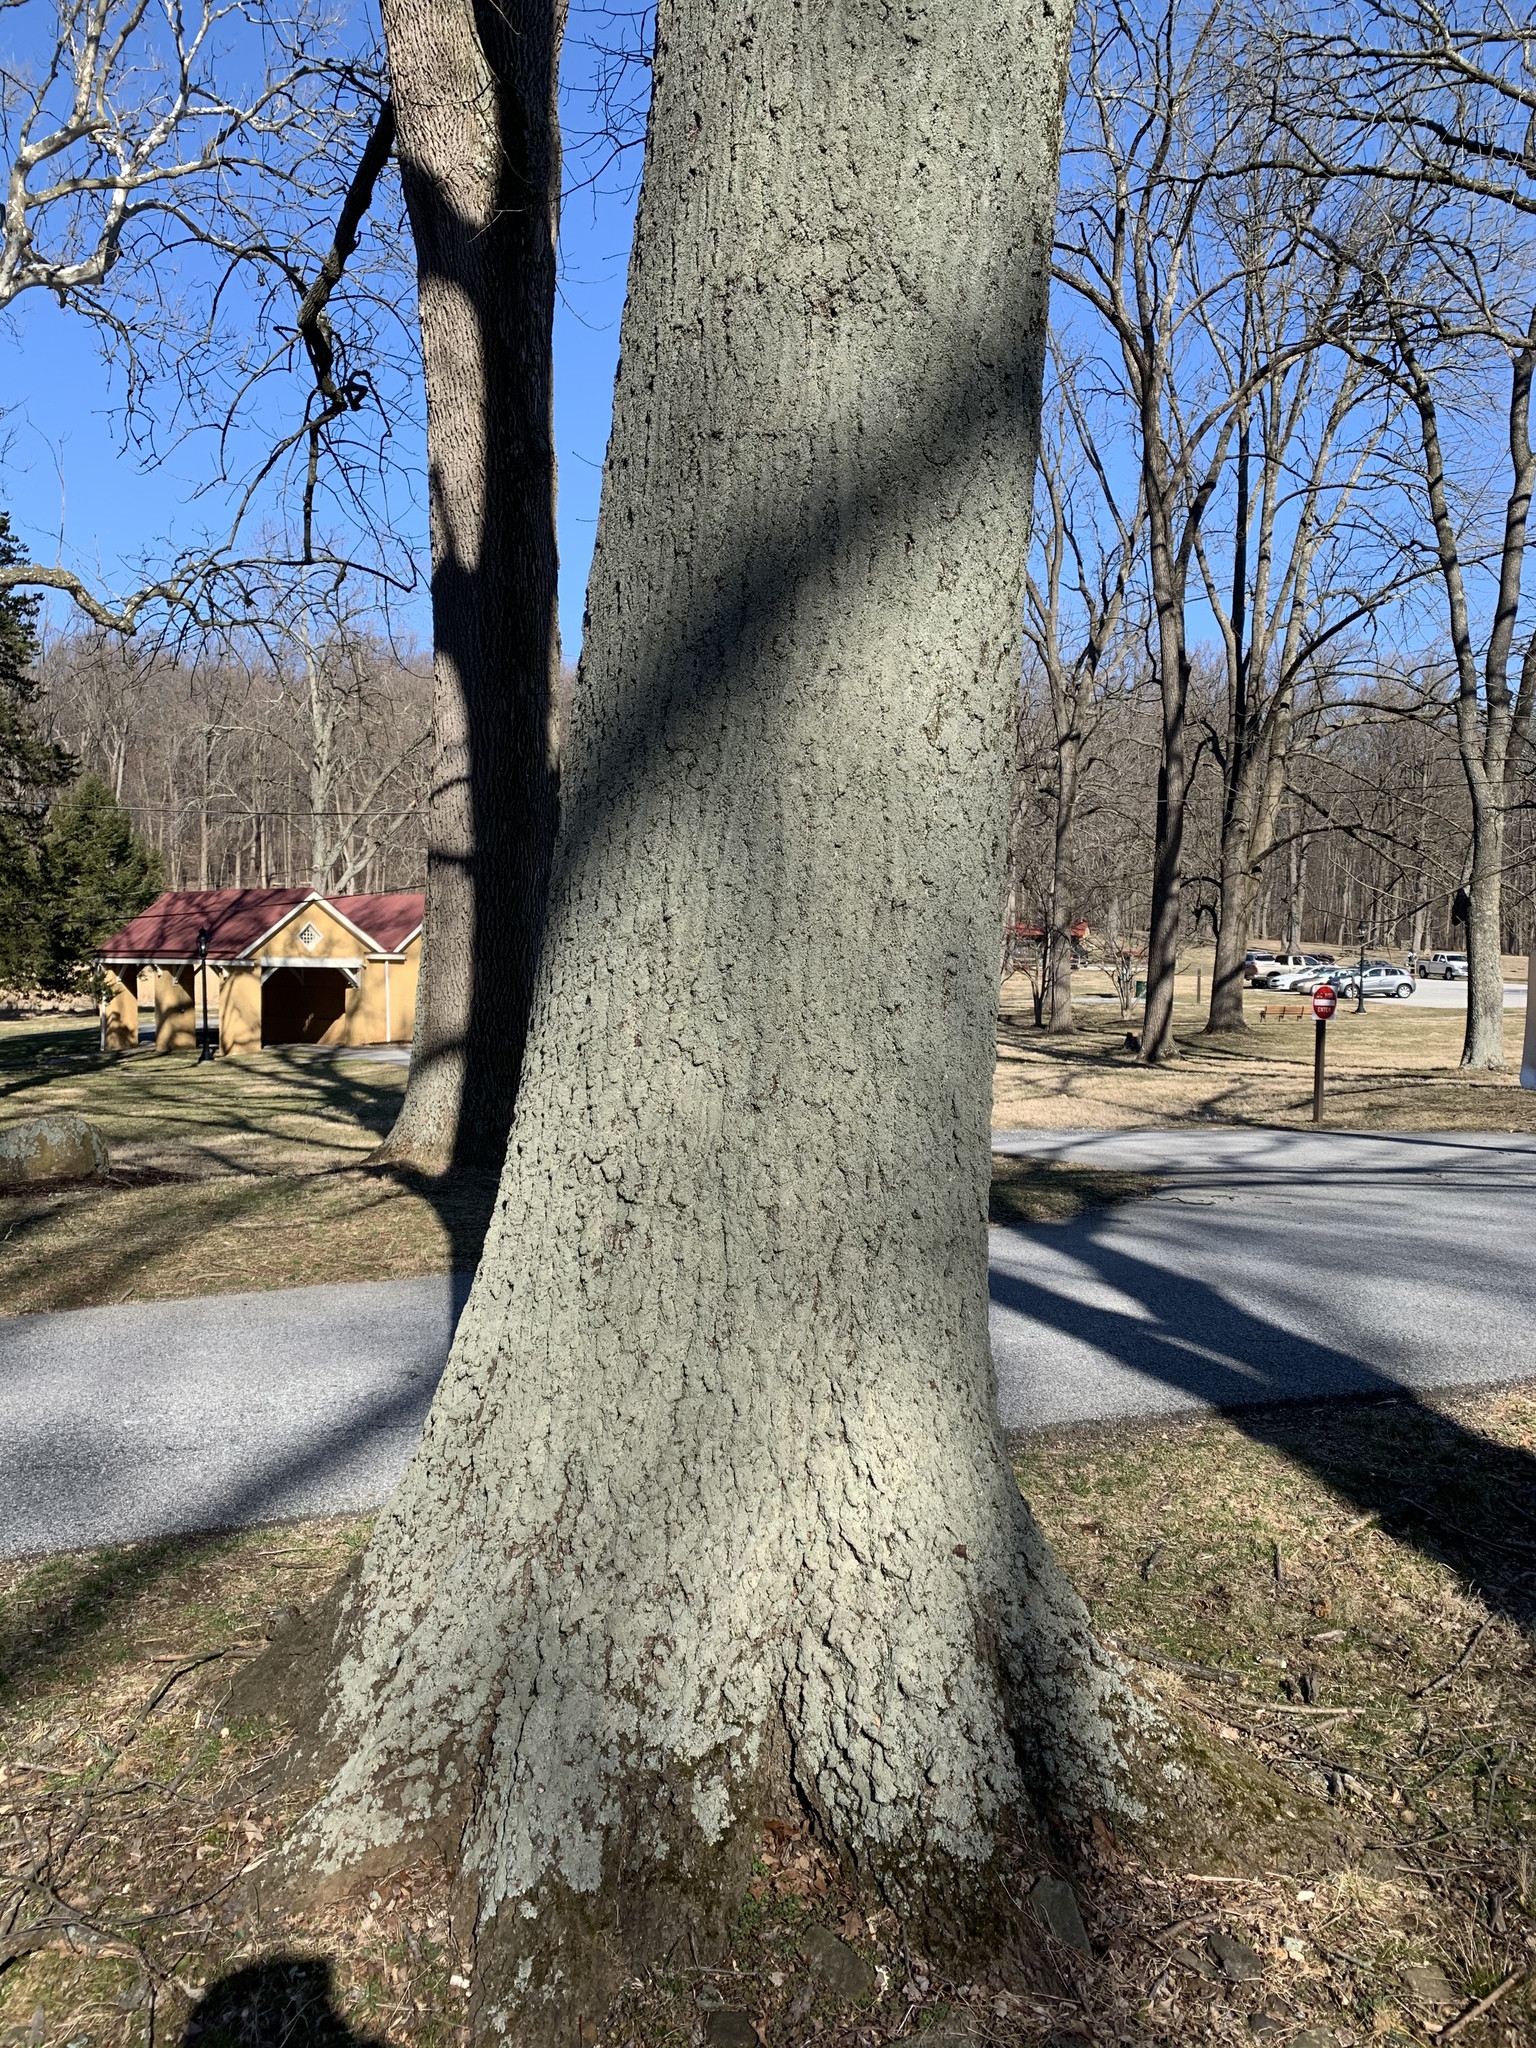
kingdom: Fungi
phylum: Ascomycota
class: Lecanoromycetes
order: Lecanorales
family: Parmeliaceae
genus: Punctelia
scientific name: Punctelia rudecta
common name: Rough speckled shield lichen
